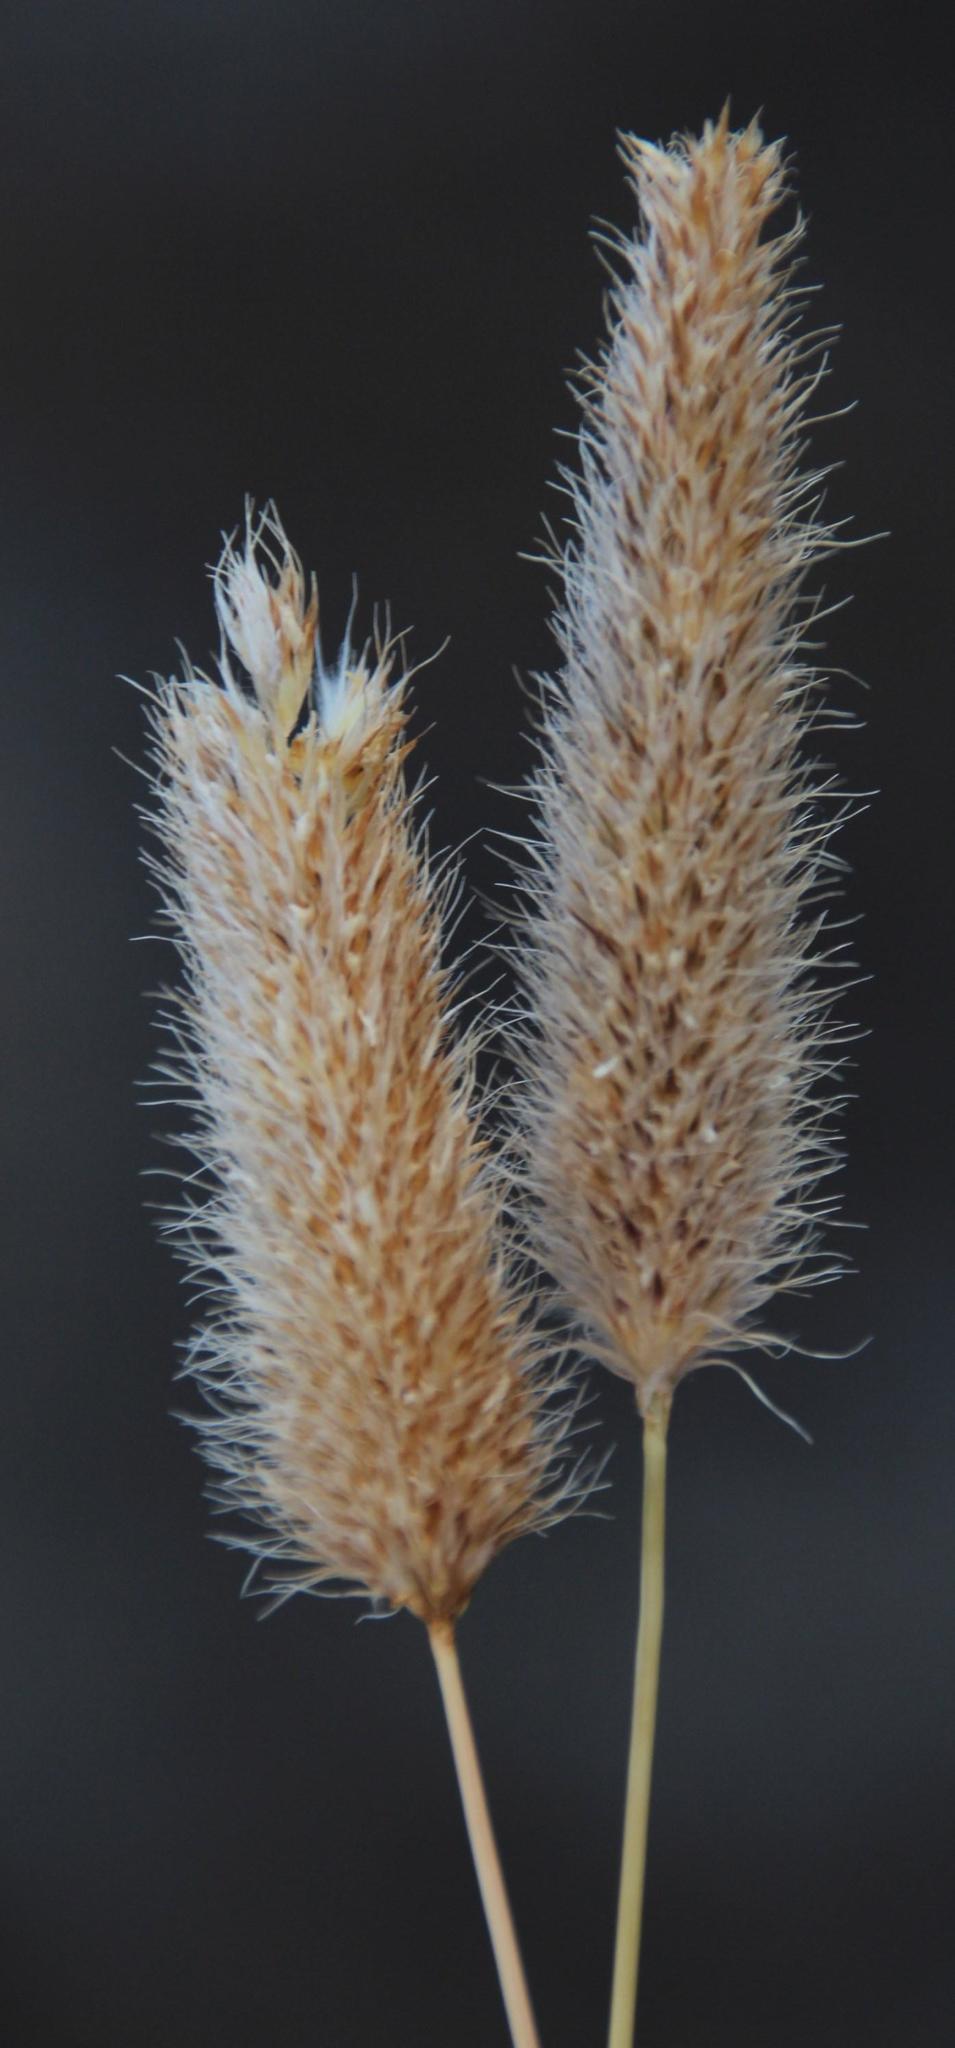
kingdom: Plantae
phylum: Tracheophyta
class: Liliopsida
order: Poales
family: Poaceae
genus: Fingerhuthia
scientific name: Fingerhuthia africana
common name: Zulu fescue
